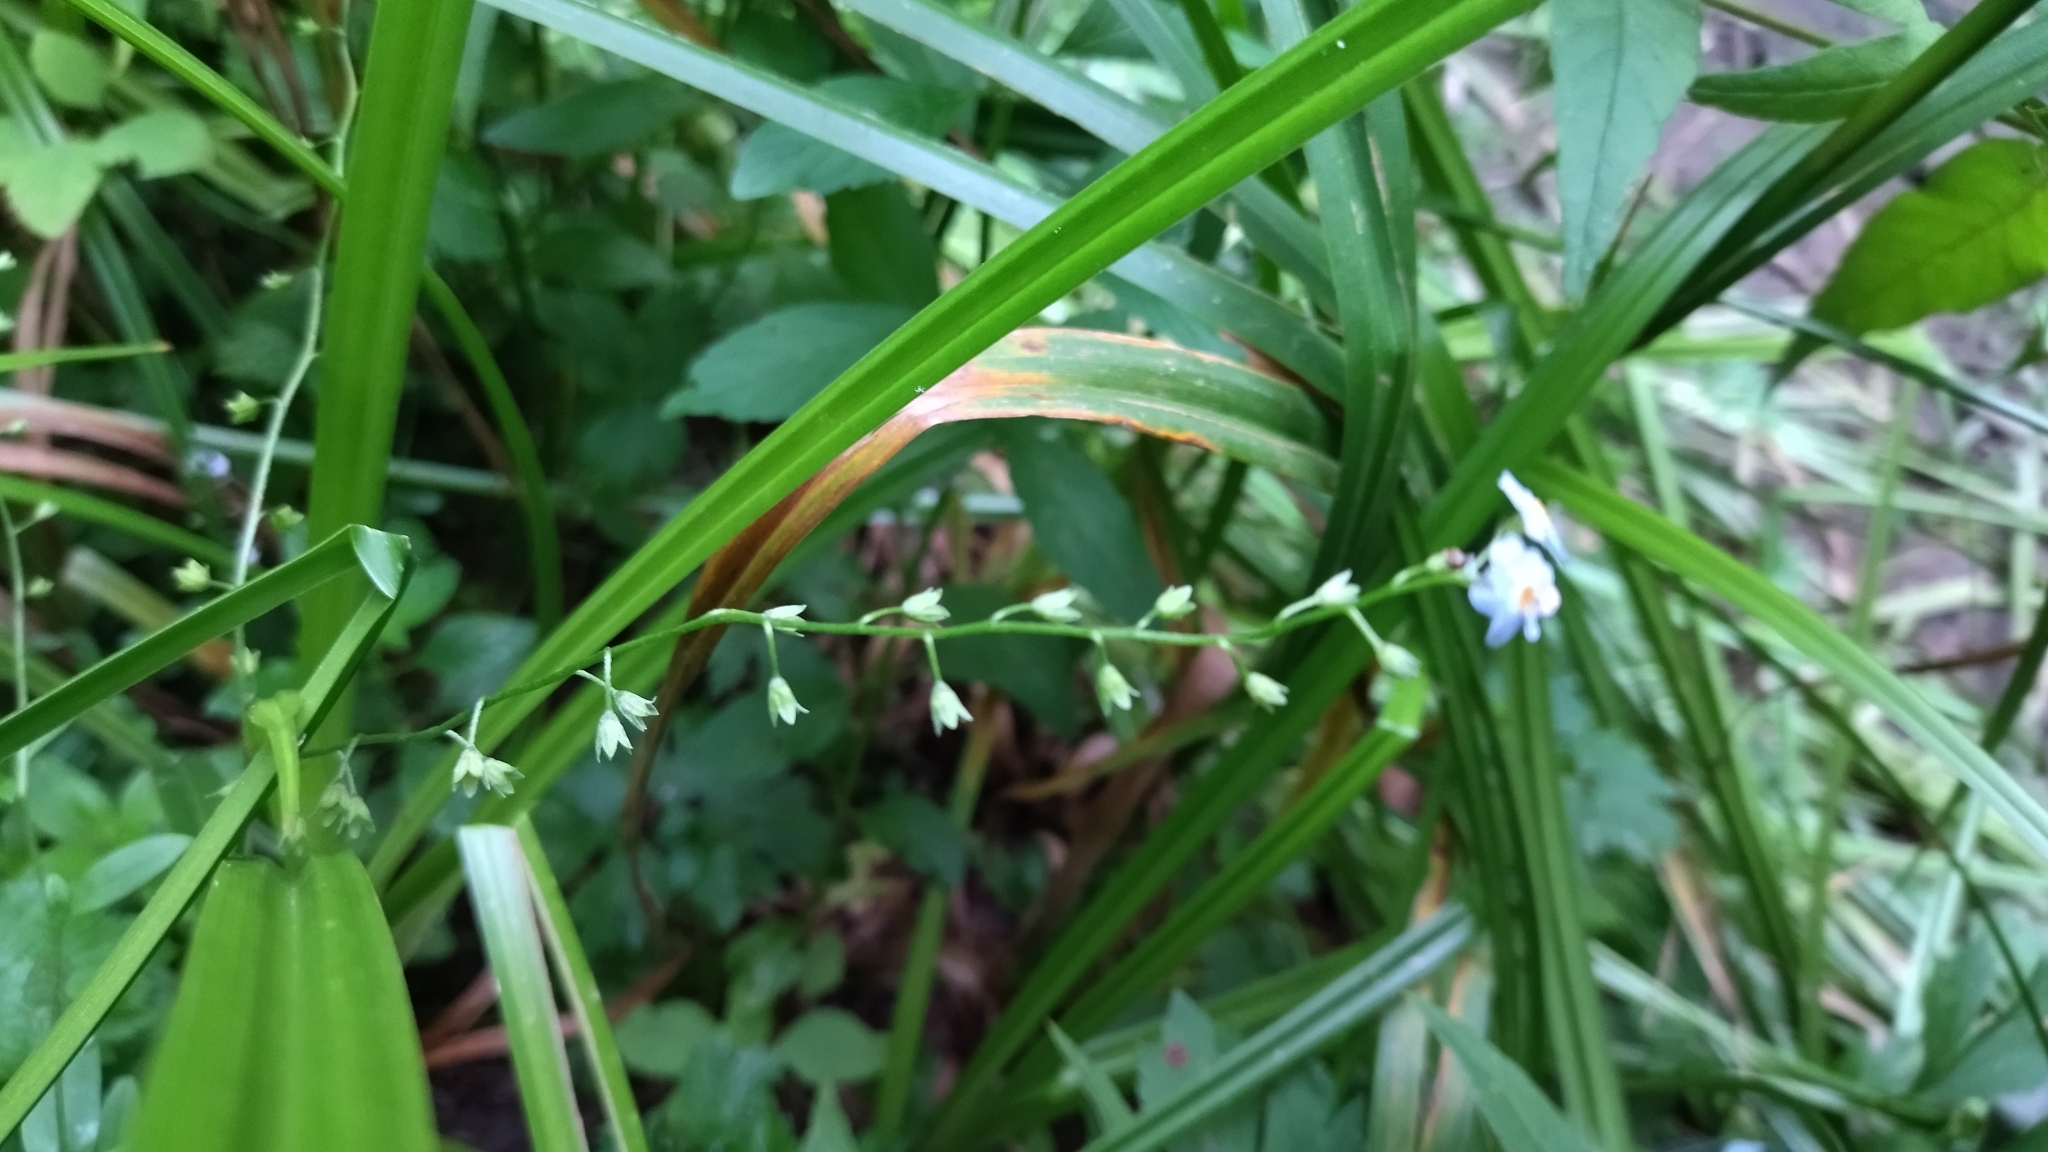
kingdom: Plantae
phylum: Tracheophyta
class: Magnoliopsida
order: Boraginales
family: Boraginaceae
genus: Myosotis
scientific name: Myosotis scorpioides
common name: Water forget-me-not
